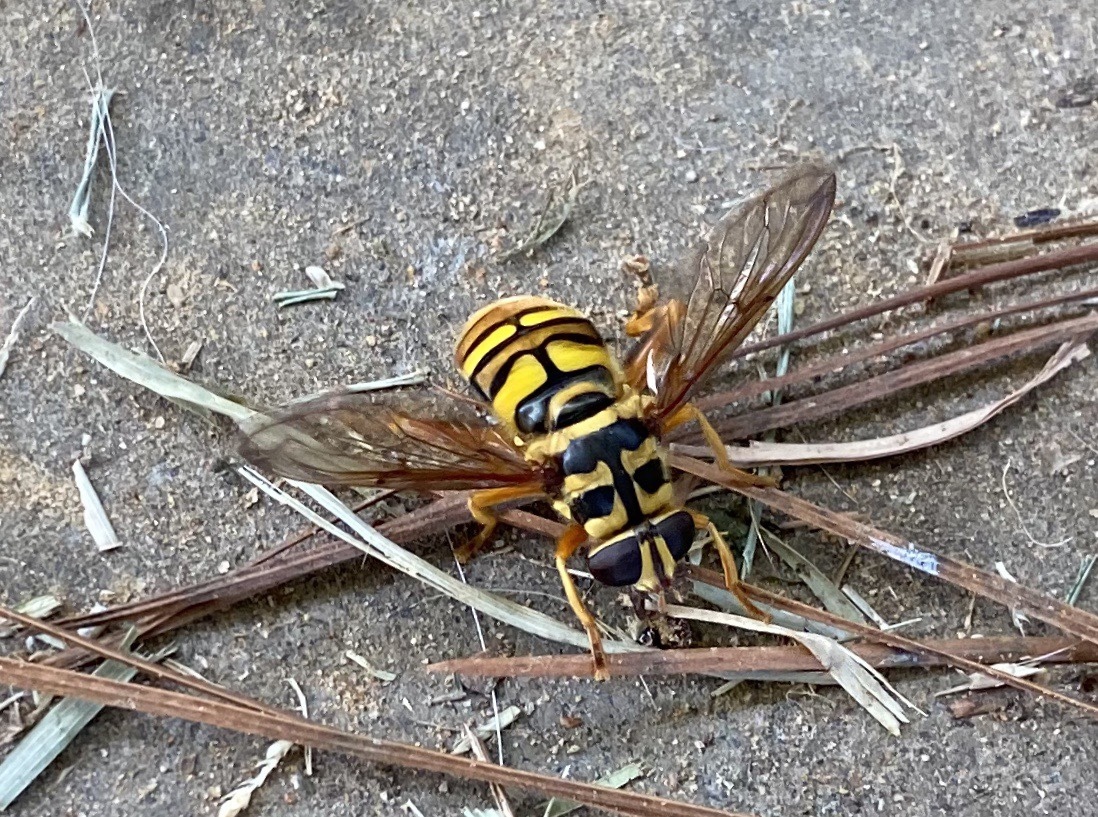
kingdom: Animalia
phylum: Arthropoda
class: Insecta
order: Diptera
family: Syrphidae
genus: Milesia
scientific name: Milesia virginiensis
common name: Virginia giant
